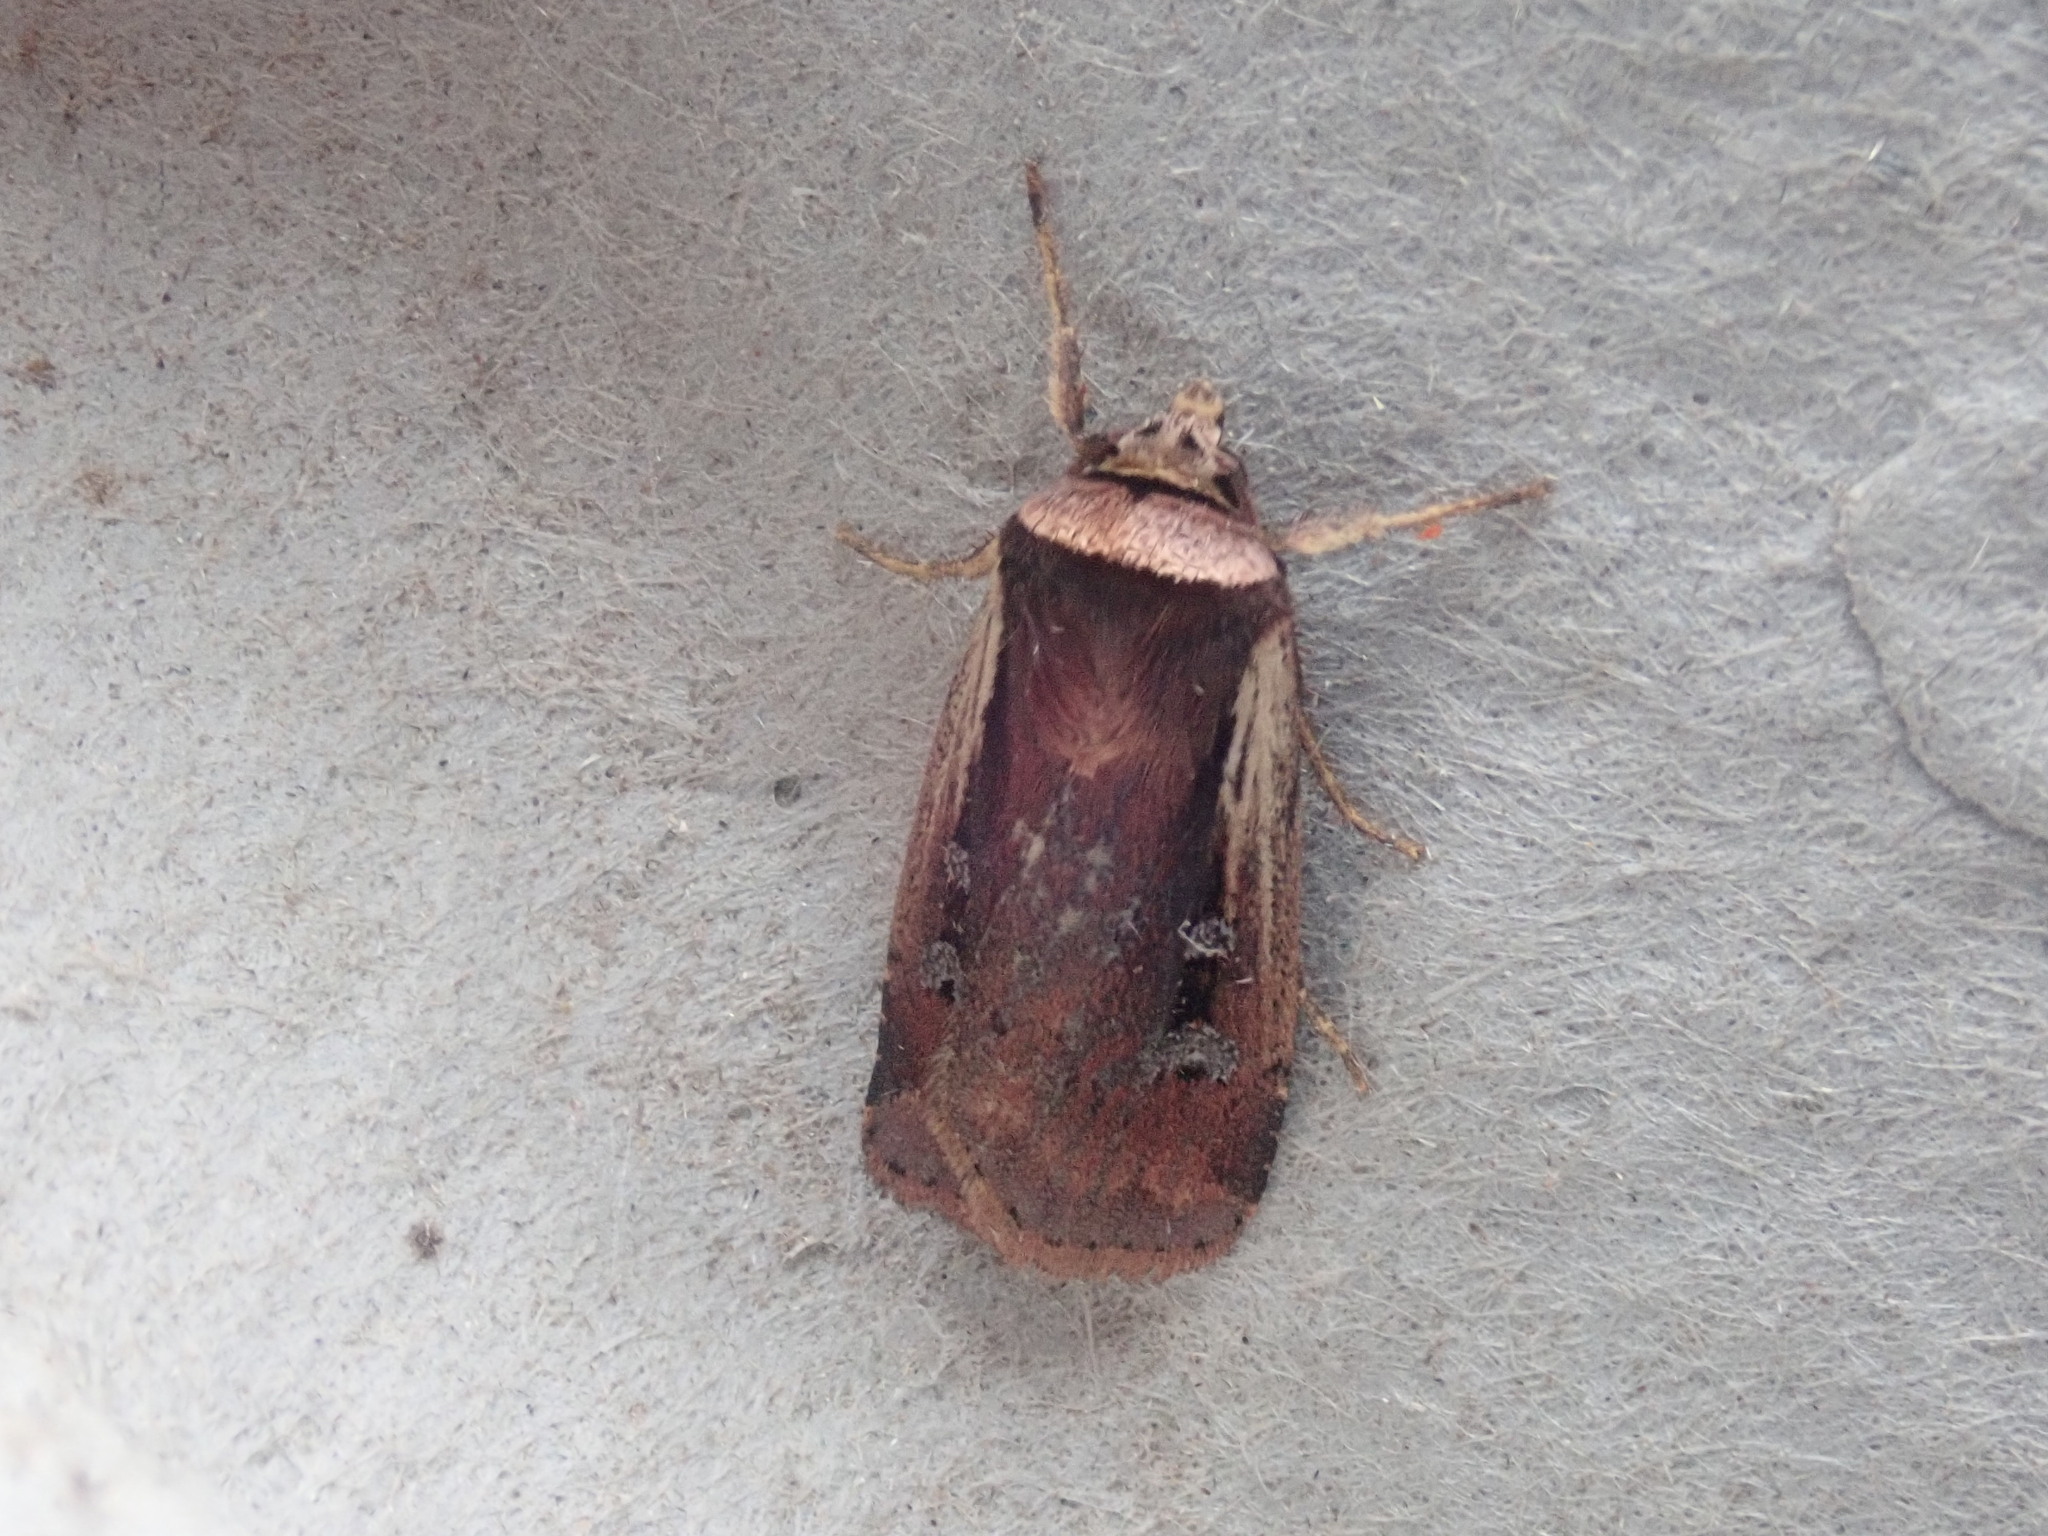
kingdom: Animalia
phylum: Arthropoda
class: Insecta
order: Lepidoptera
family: Noctuidae
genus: Ochropleura
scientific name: Ochropleura implecta
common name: Flame-shouldered dart
